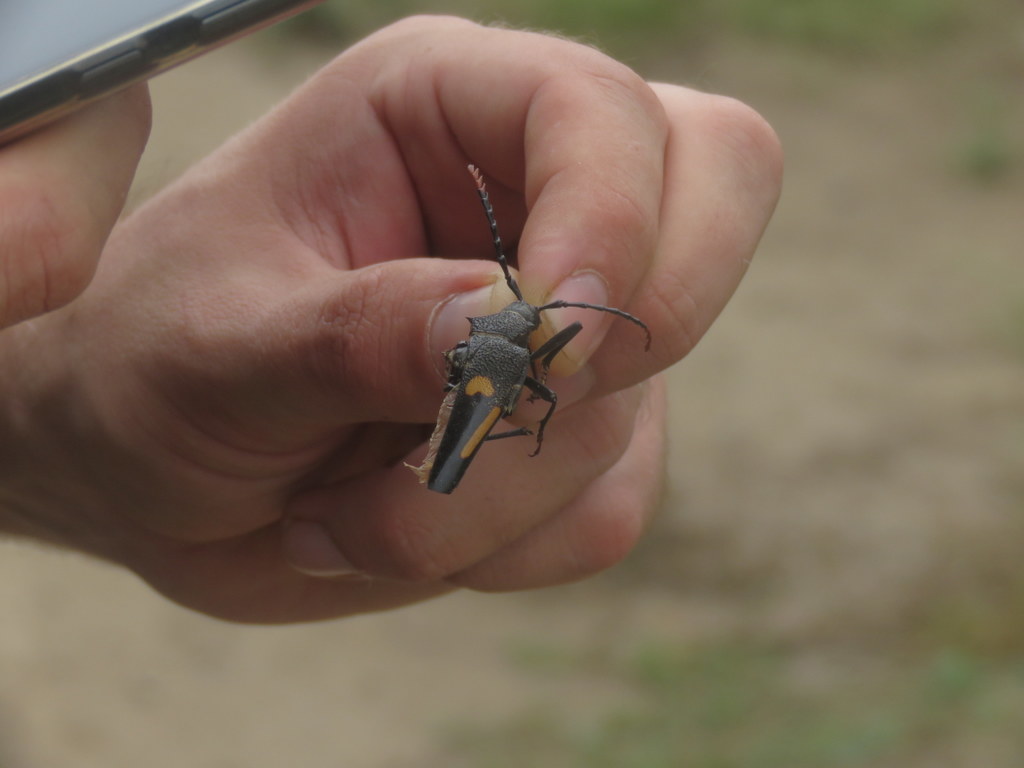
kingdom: Animalia
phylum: Arthropoda
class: Insecta
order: Coleoptera
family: Cerambycidae
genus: Calocomus
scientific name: Calocomus desmarestii
